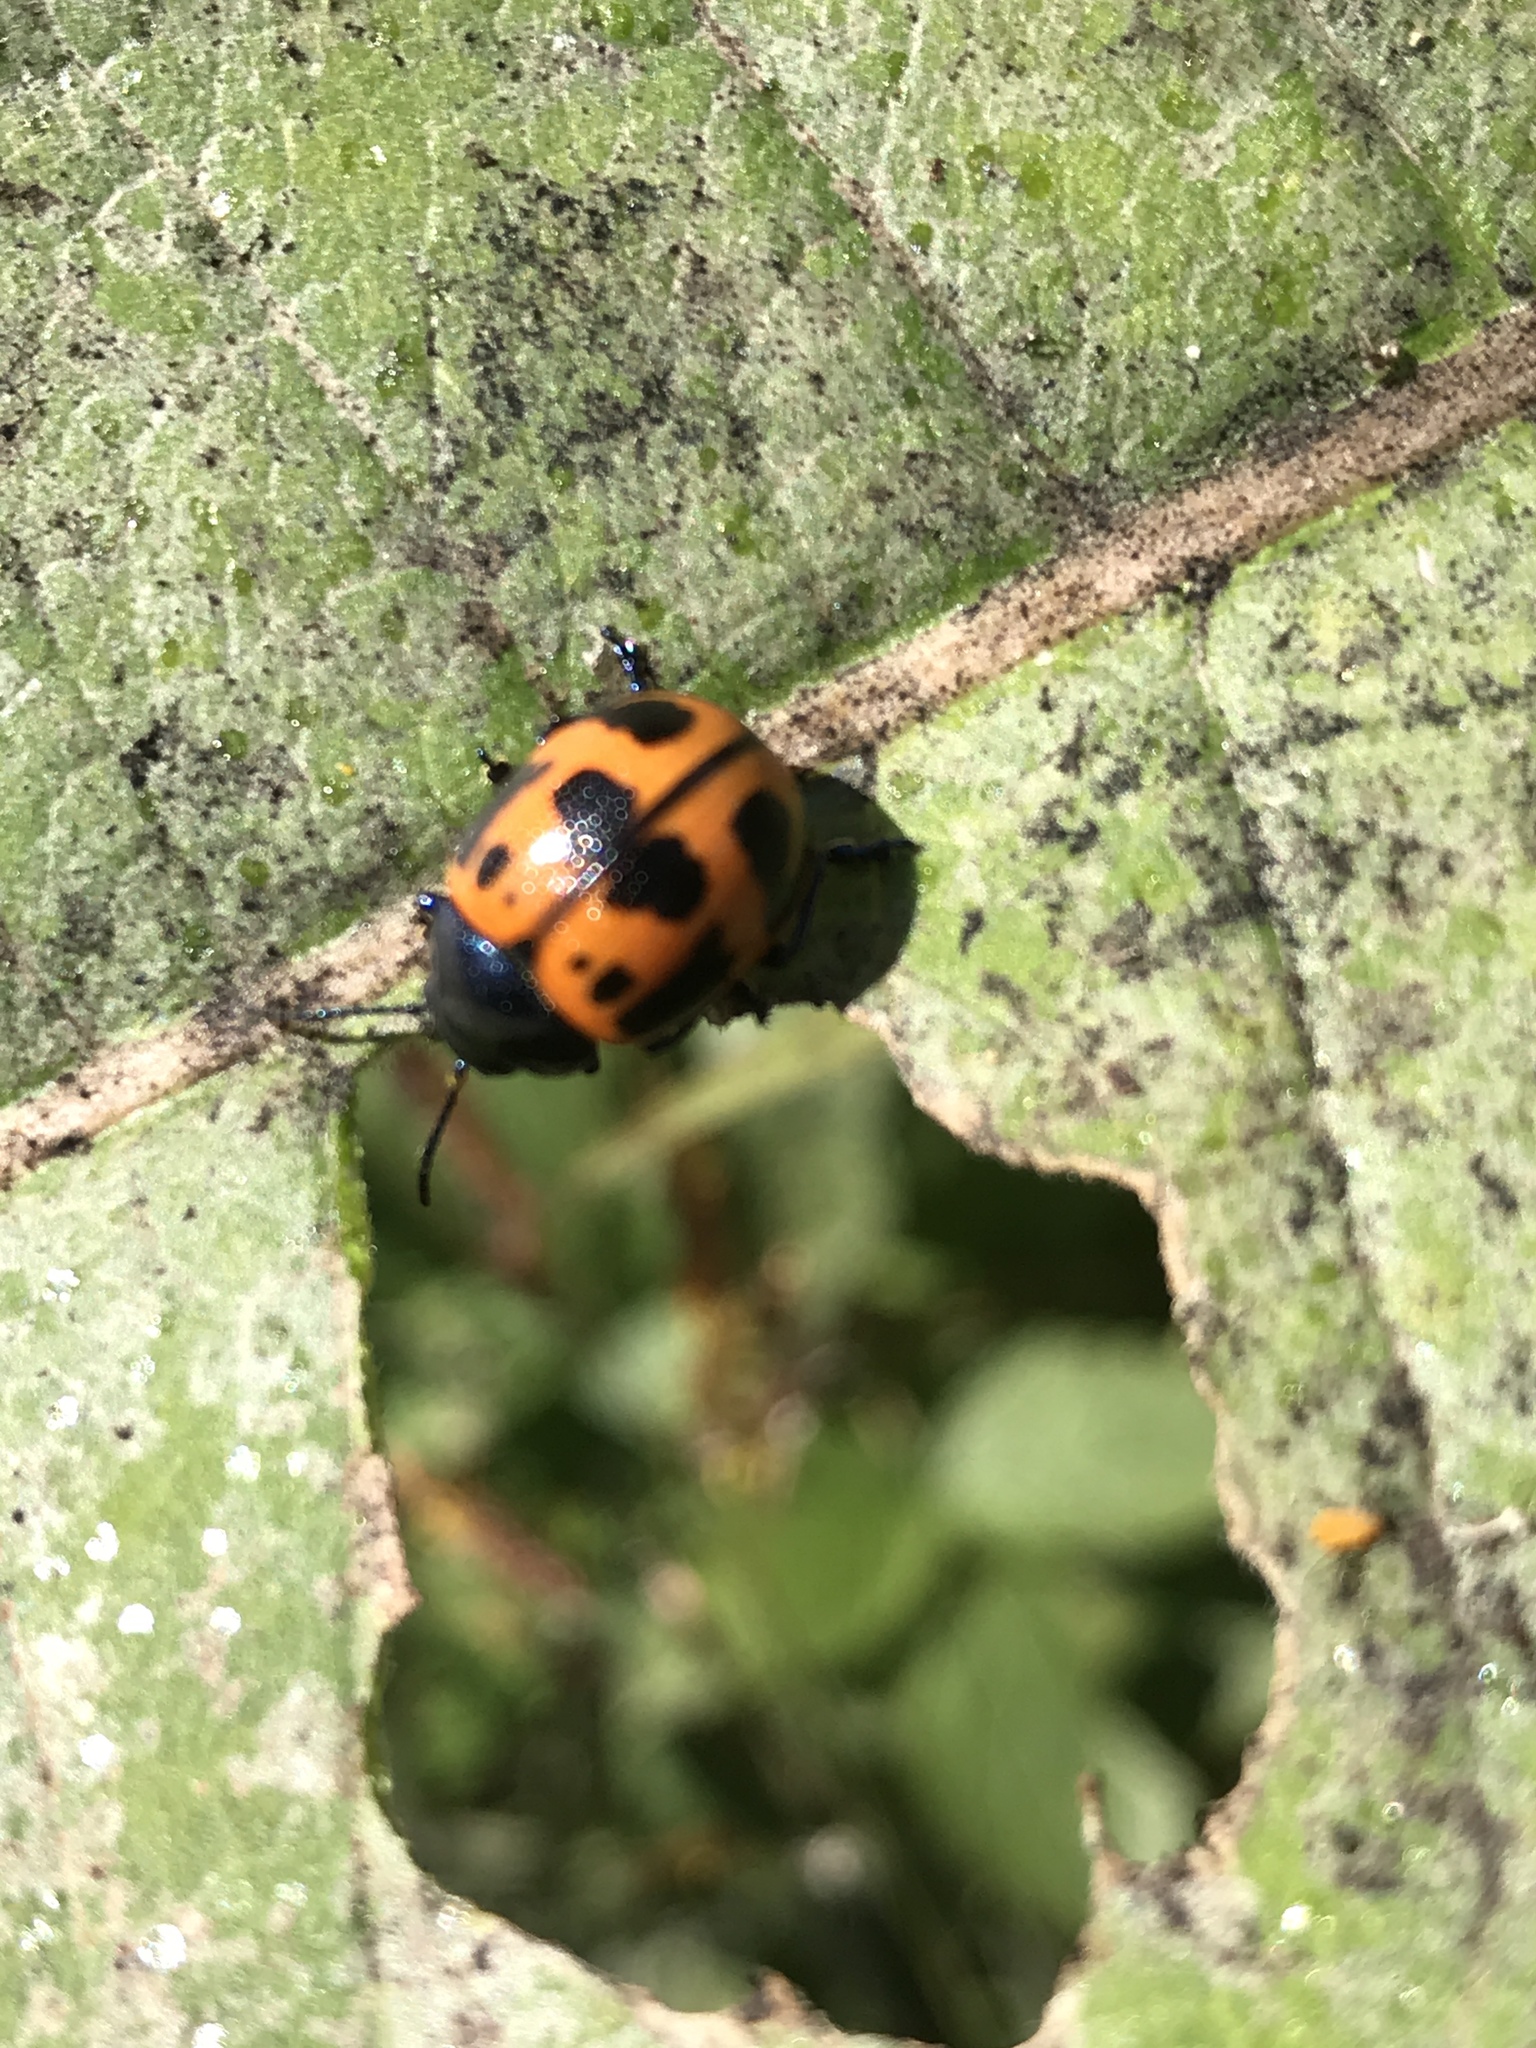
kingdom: Animalia
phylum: Arthropoda
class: Insecta
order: Coleoptera
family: Chrysomelidae
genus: Labidomera
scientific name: Labidomera clivicollis
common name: Swamp milkweed leaf beetle
